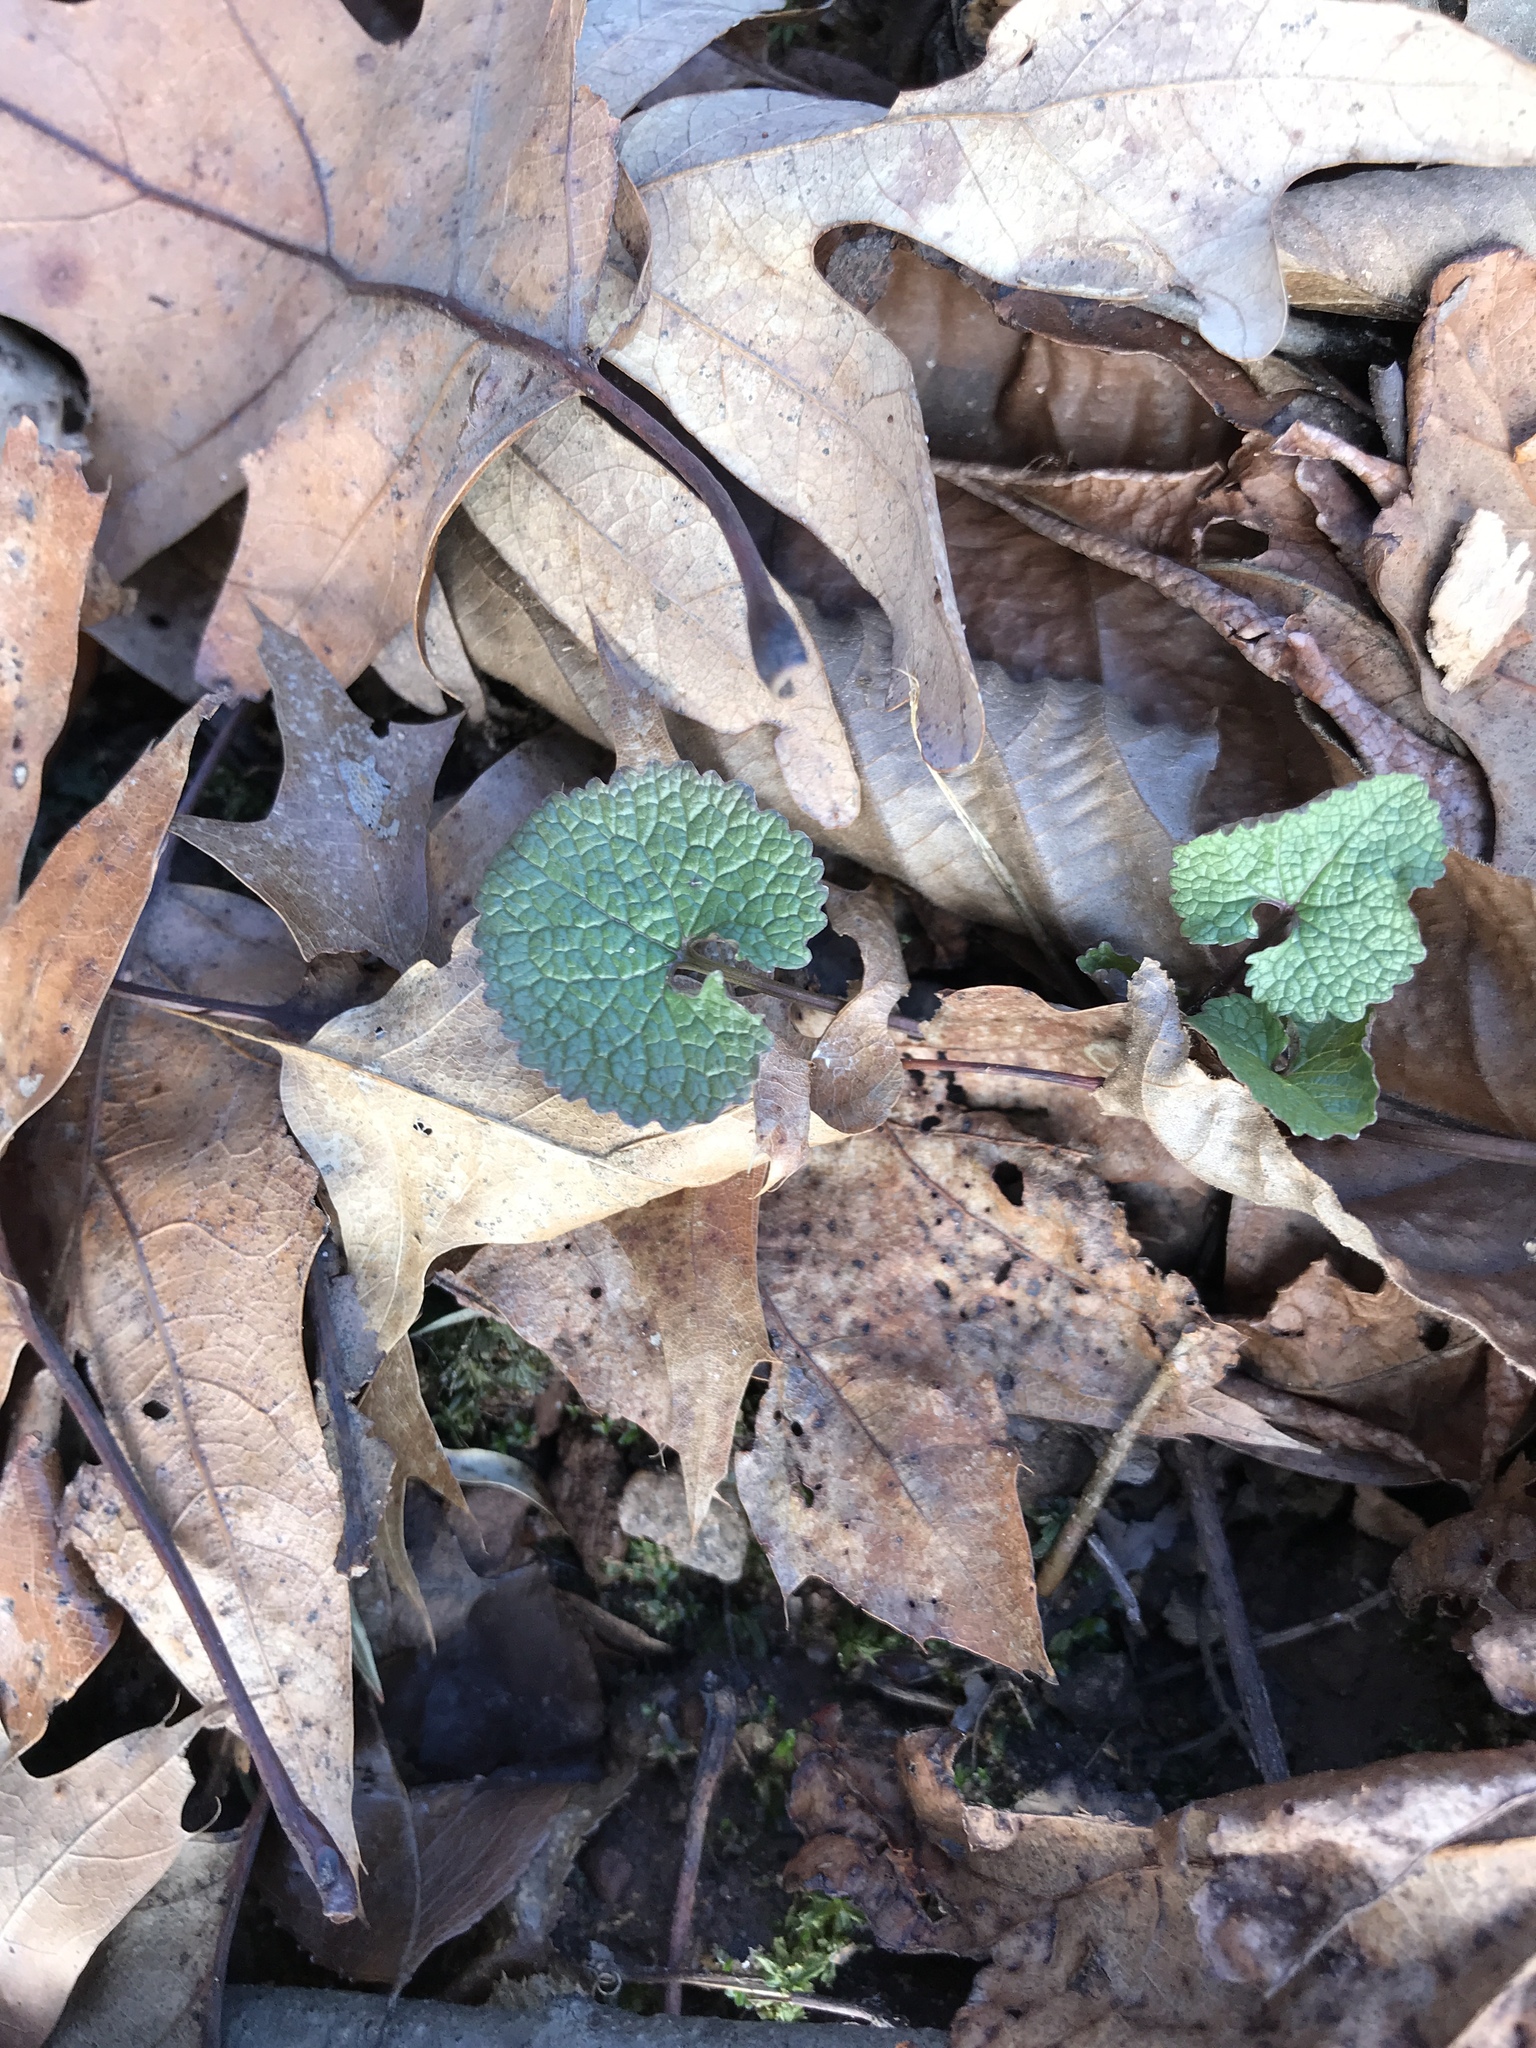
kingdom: Plantae
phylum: Tracheophyta
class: Magnoliopsida
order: Brassicales
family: Brassicaceae
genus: Alliaria
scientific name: Alliaria petiolata
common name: Garlic mustard
